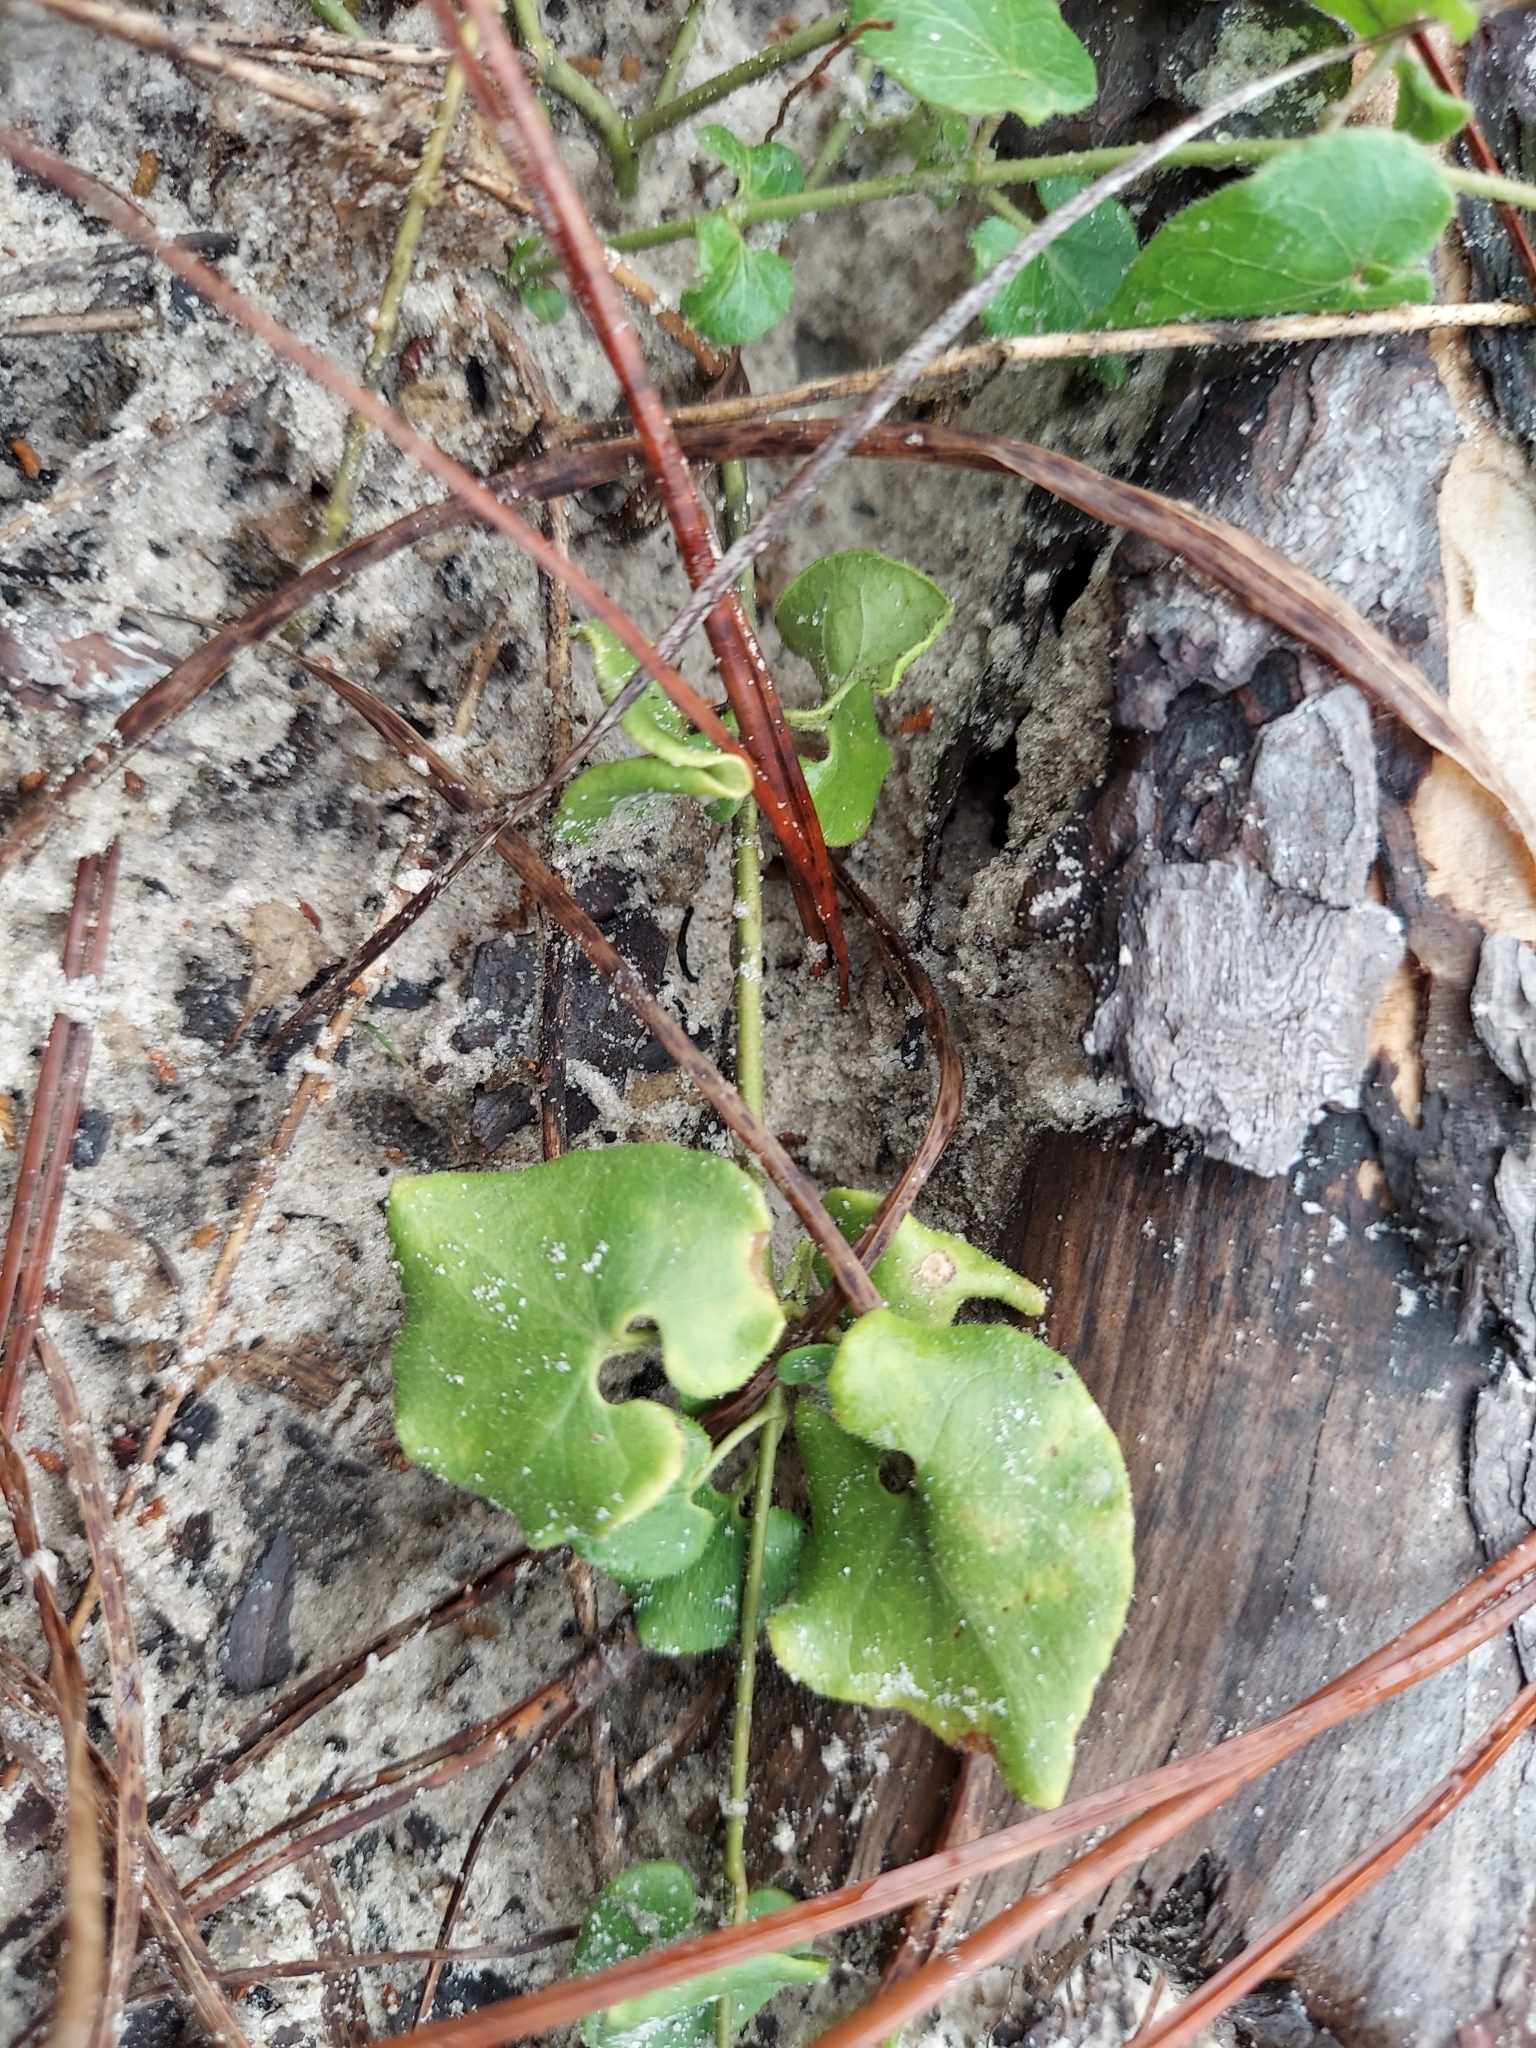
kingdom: Plantae
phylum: Tracheophyta
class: Magnoliopsida
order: Gentianales
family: Apocynaceae
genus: Chthamalia
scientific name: Chthamalia pubiflora
